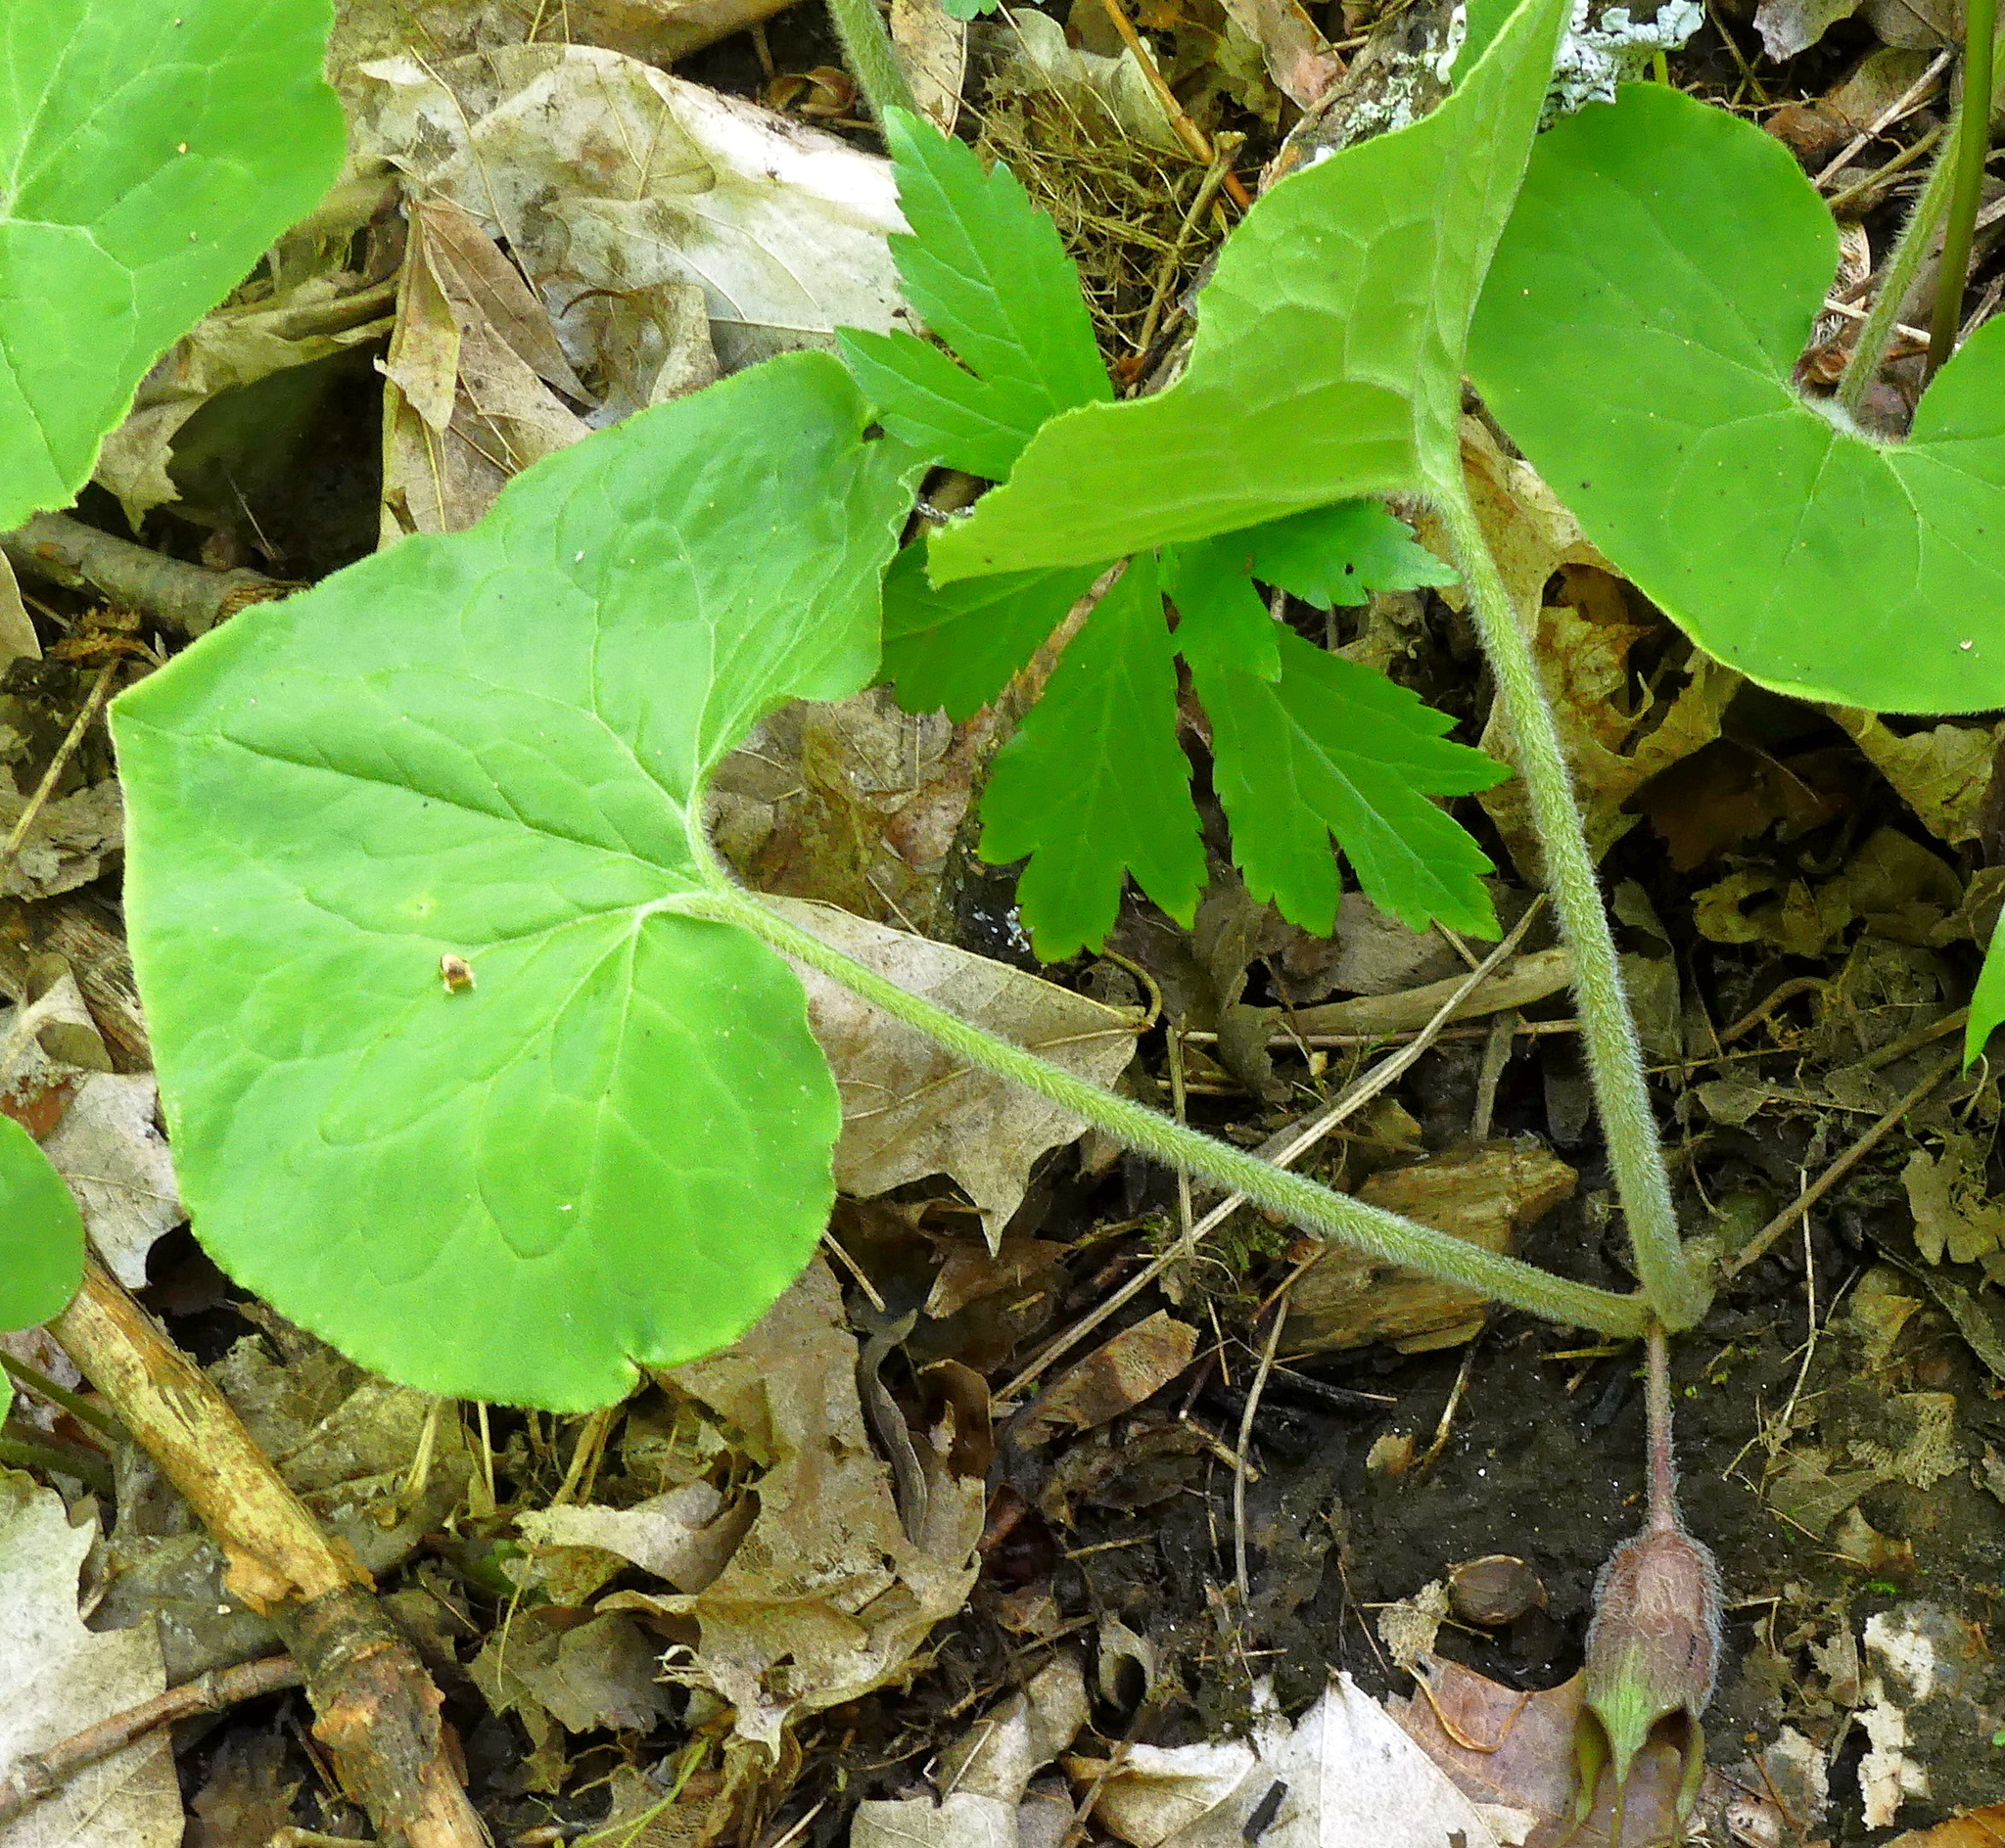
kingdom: Plantae
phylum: Tracheophyta
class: Magnoliopsida
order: Piperales
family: Aristolochiaceae
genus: Asarum
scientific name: Asarum canadense
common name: Wild ginger
